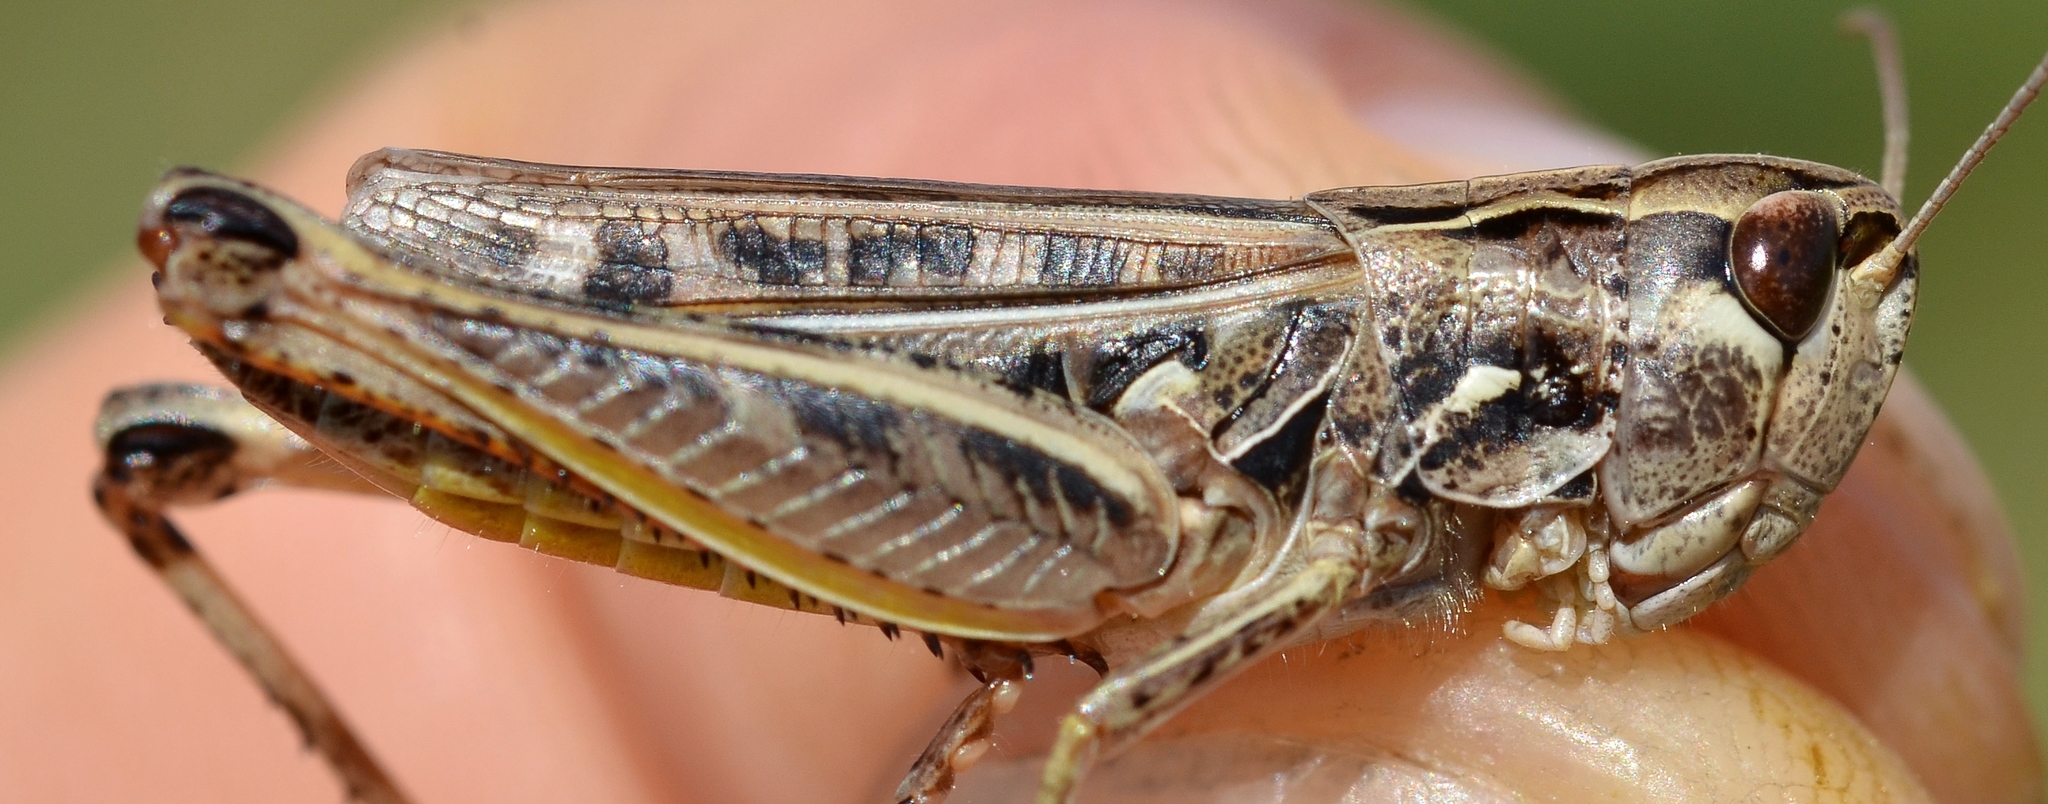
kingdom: Animalia
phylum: Arthropoda
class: Insecta
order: Orthoptera
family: Acrididae
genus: Stenobothrus
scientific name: Stenobothrus nigromaculatus
